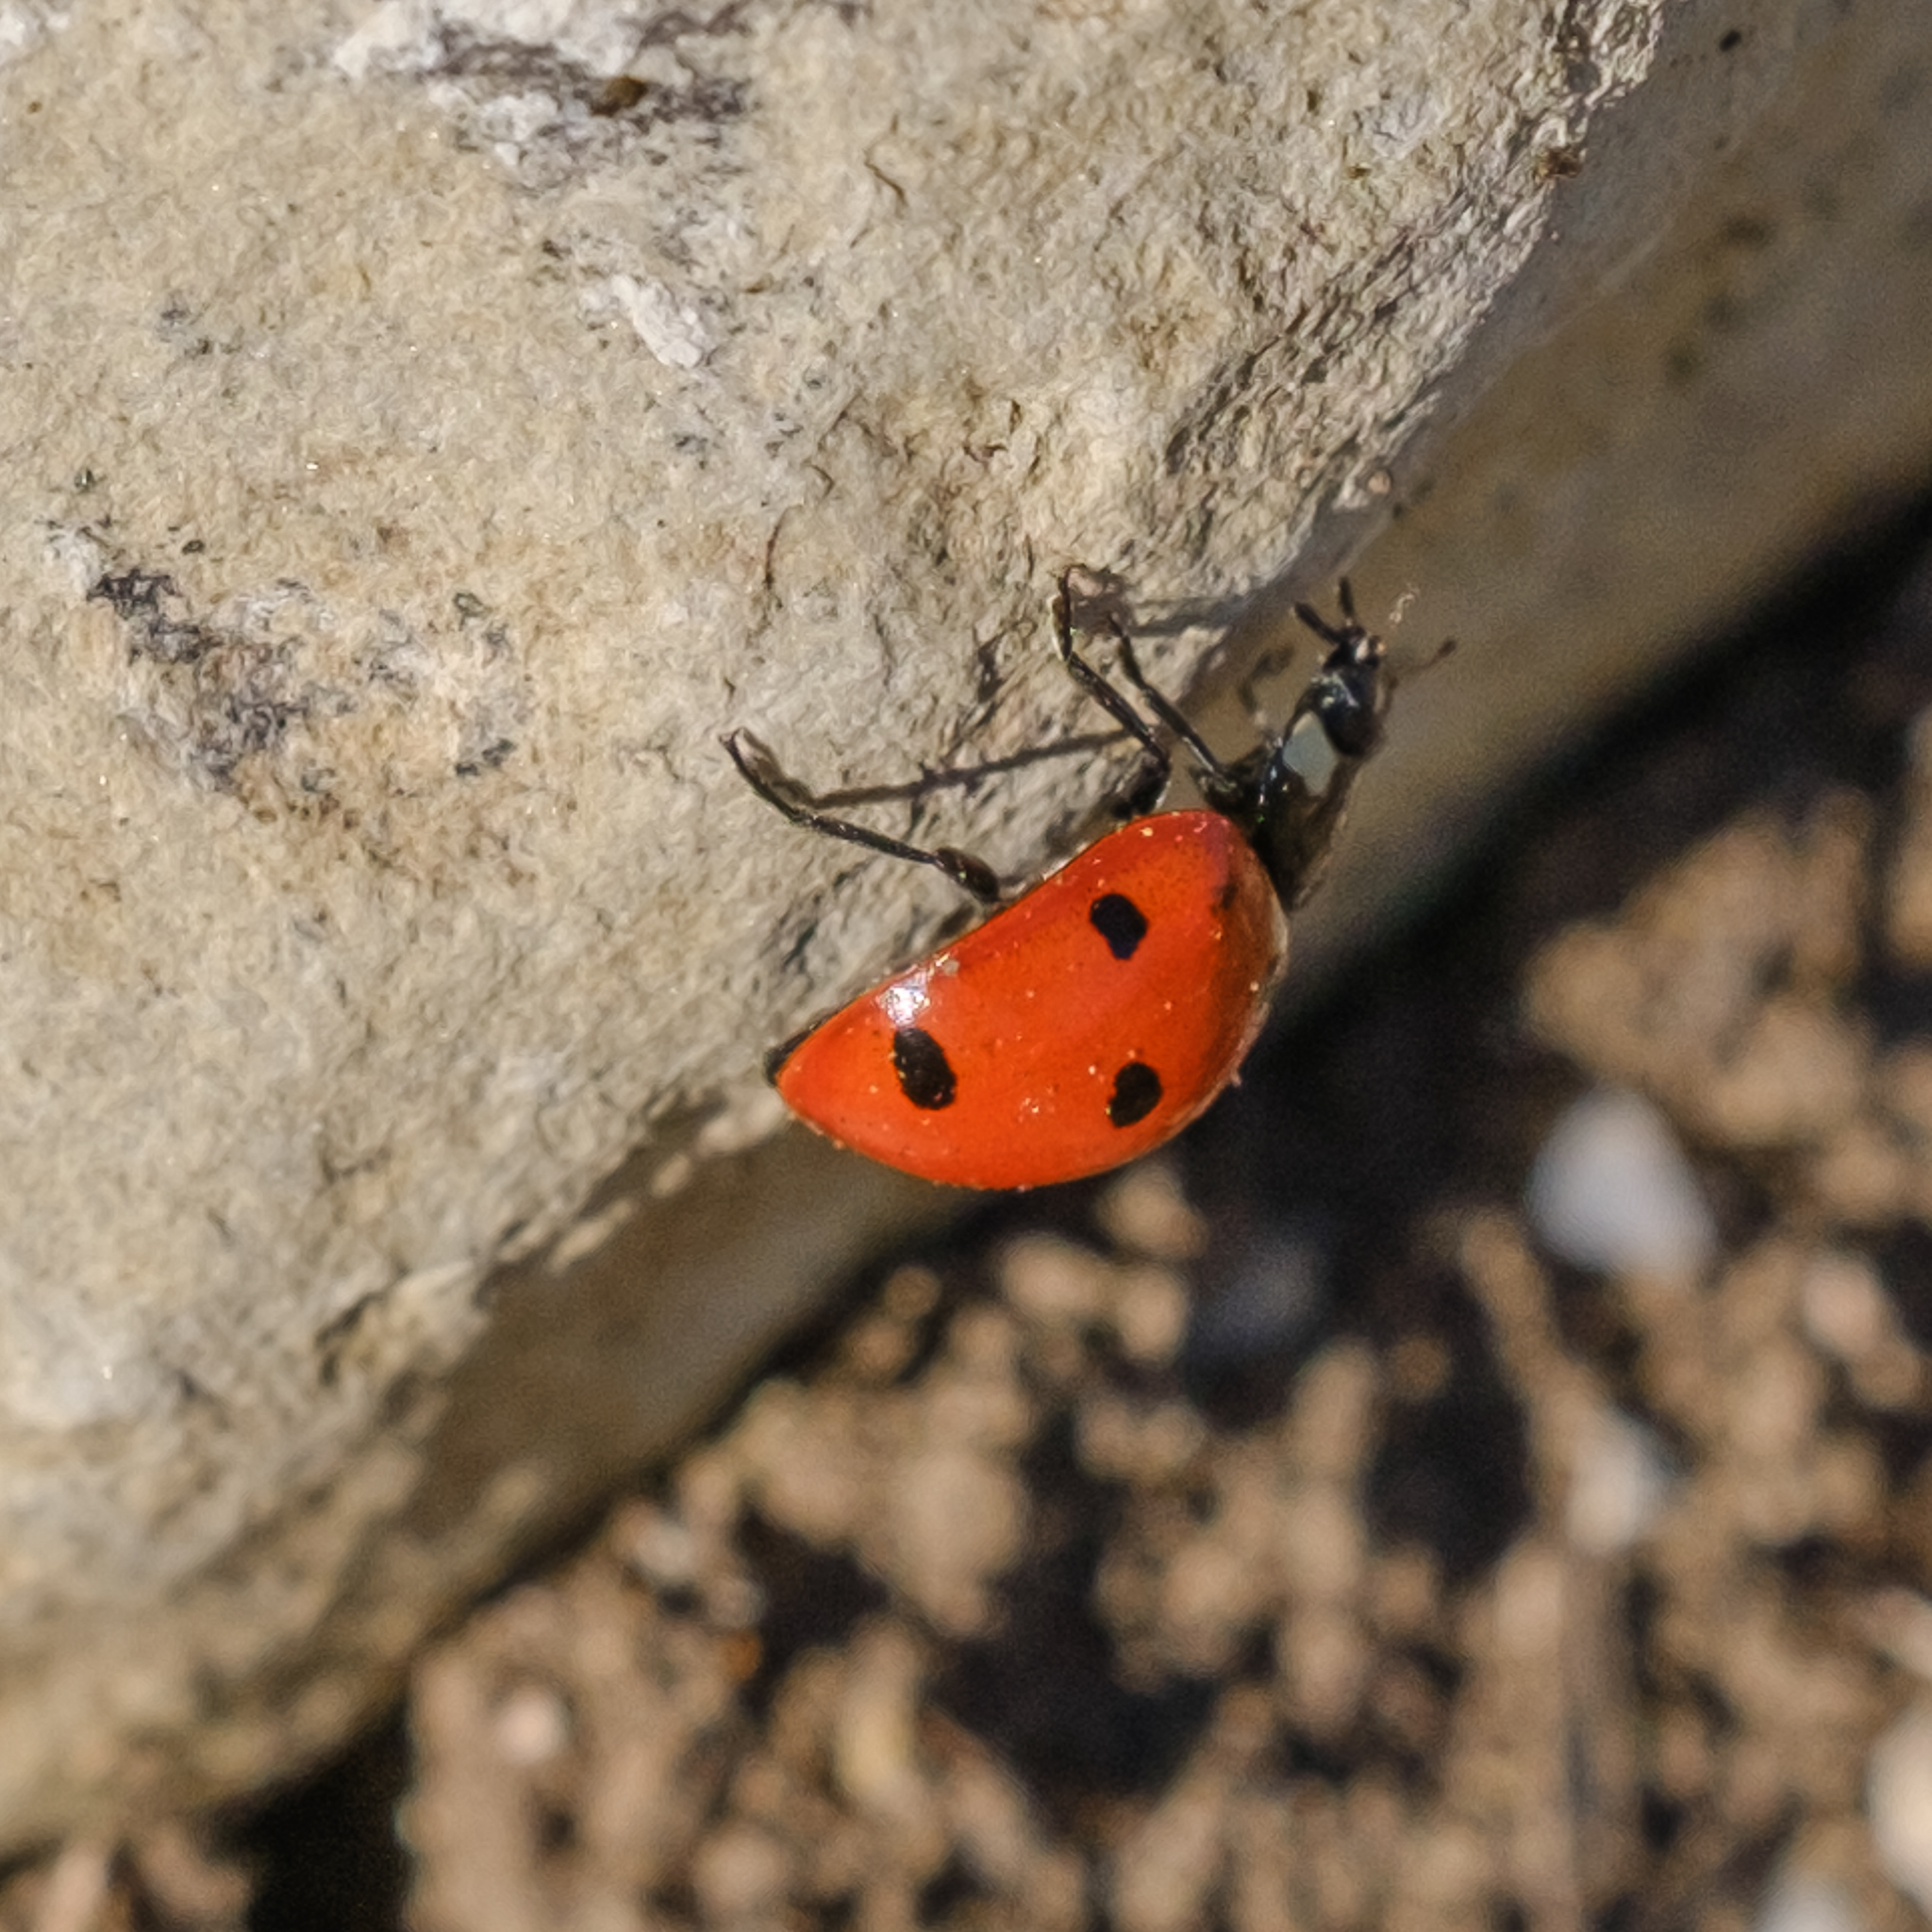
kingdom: Animalia
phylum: Arthropoda
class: Insecta
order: Coleoptera
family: Coccinellidae
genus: Coccinella
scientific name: Coccinella septempunctata
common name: Sevenspotted lady beetle
